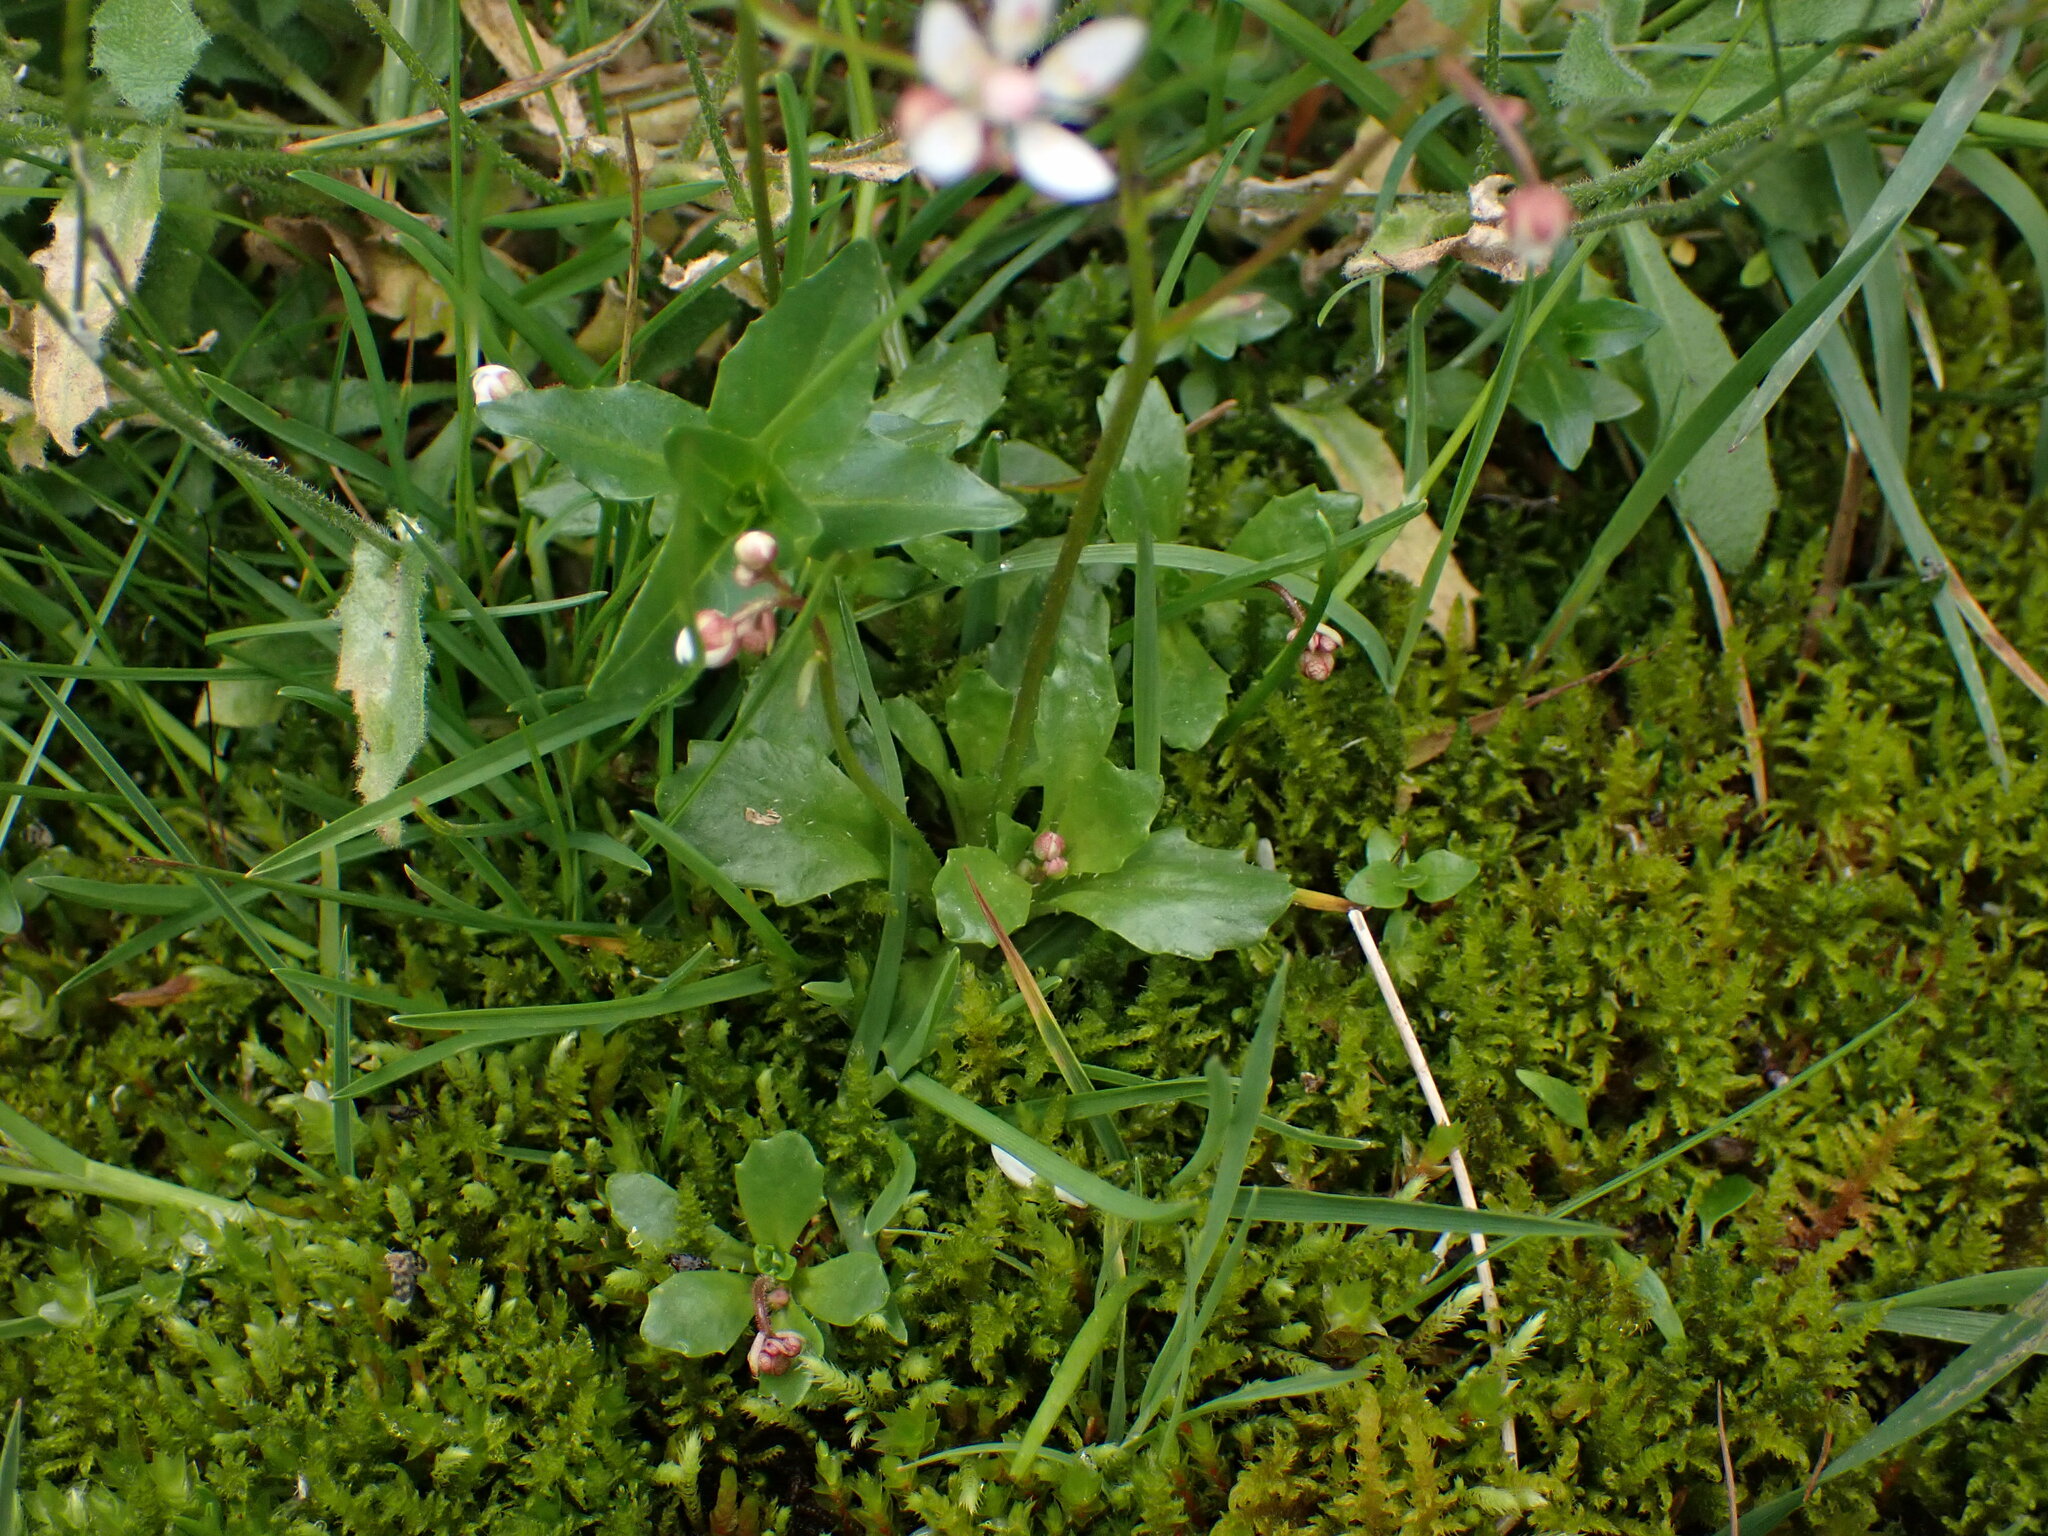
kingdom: Plantae
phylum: Tracheophyta
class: Magnoliopsida
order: Saxifragales
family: Saxifragaceae
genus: Micranthes
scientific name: Micranthes stellaris
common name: Starry saxifrage
